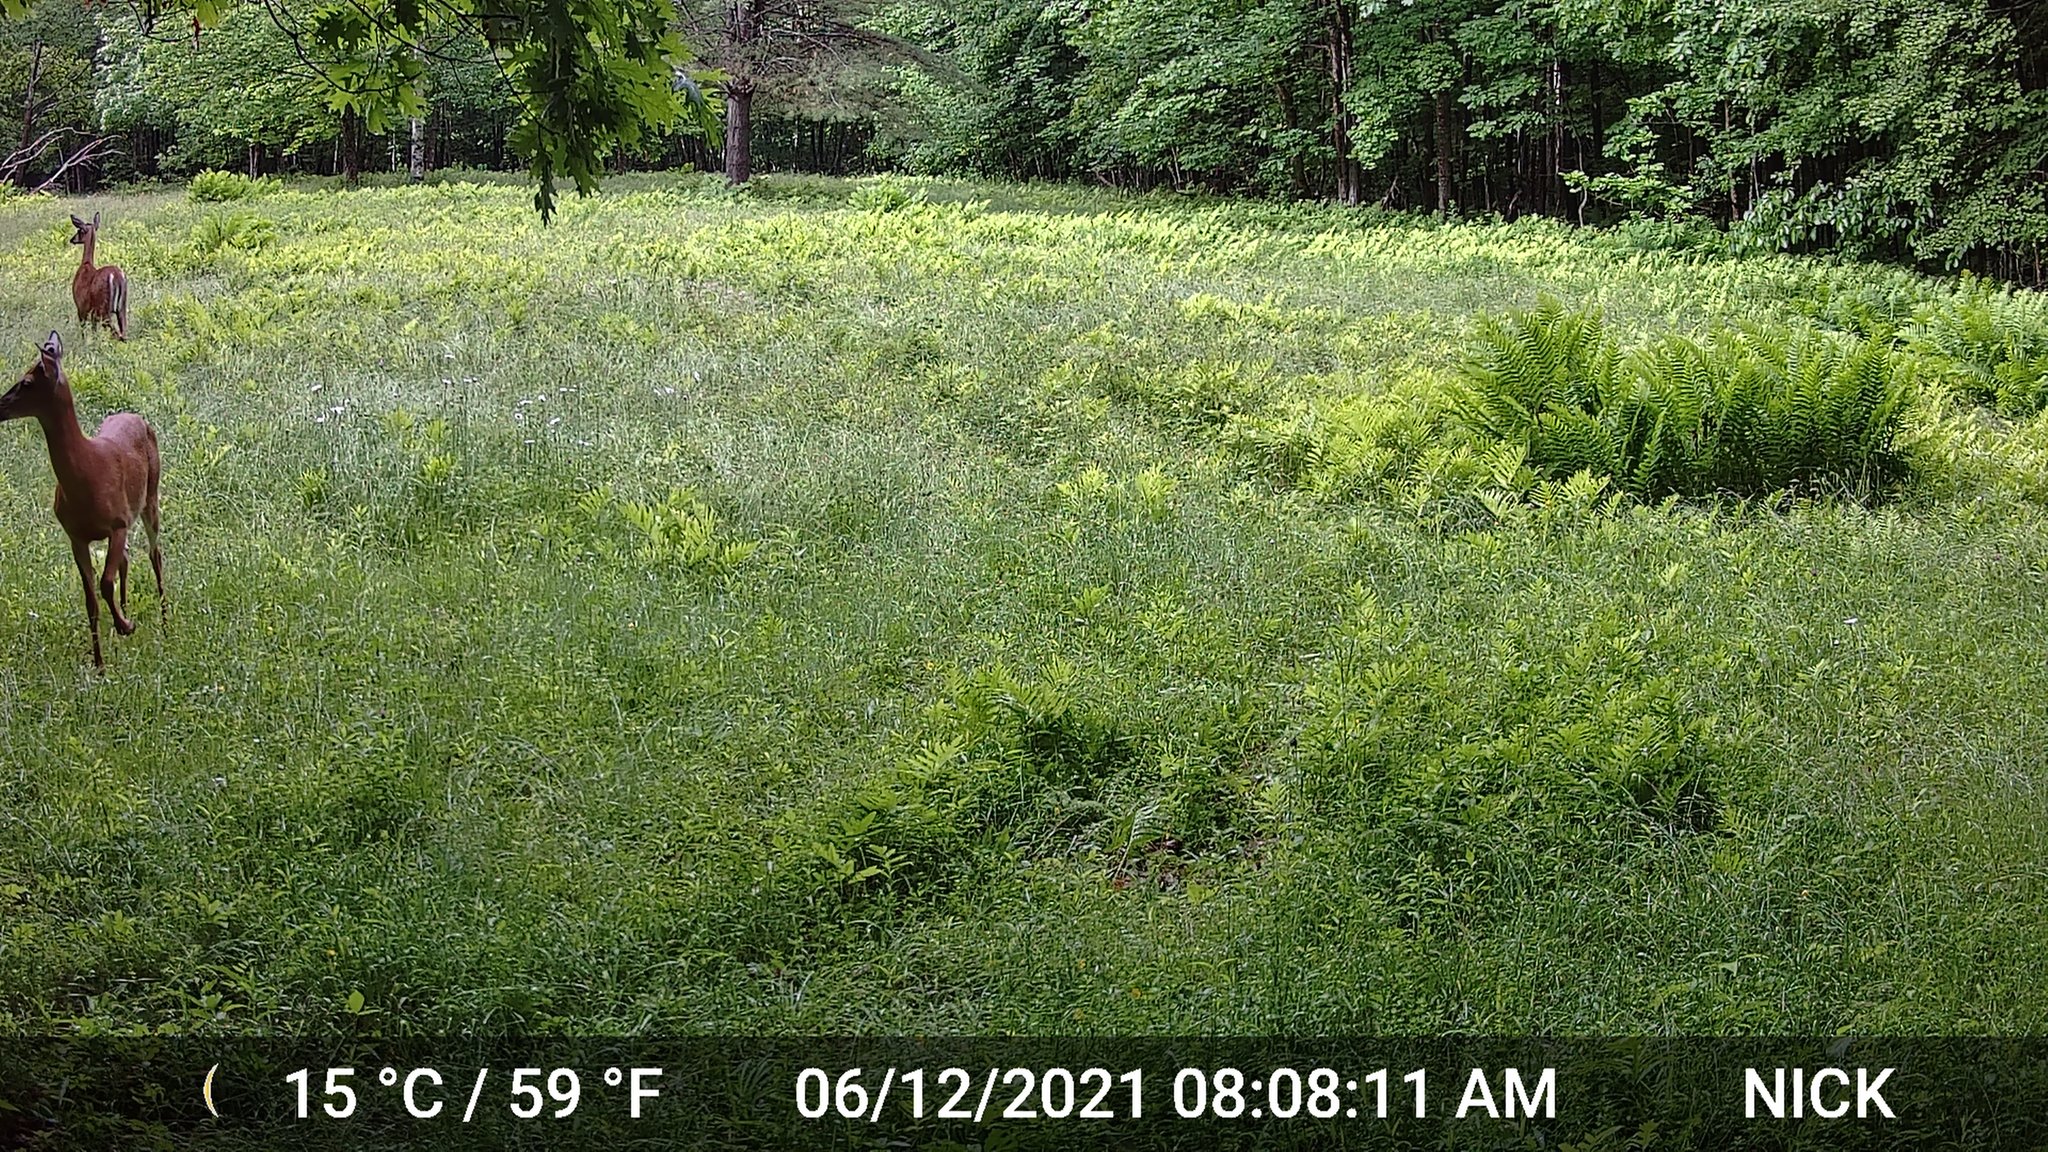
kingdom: Animalia
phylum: Chordata
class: Mammalia
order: Artiodactyla
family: Cervidae
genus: Odocoileus
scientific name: Odocoileus virginianus
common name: White-tailed deer
